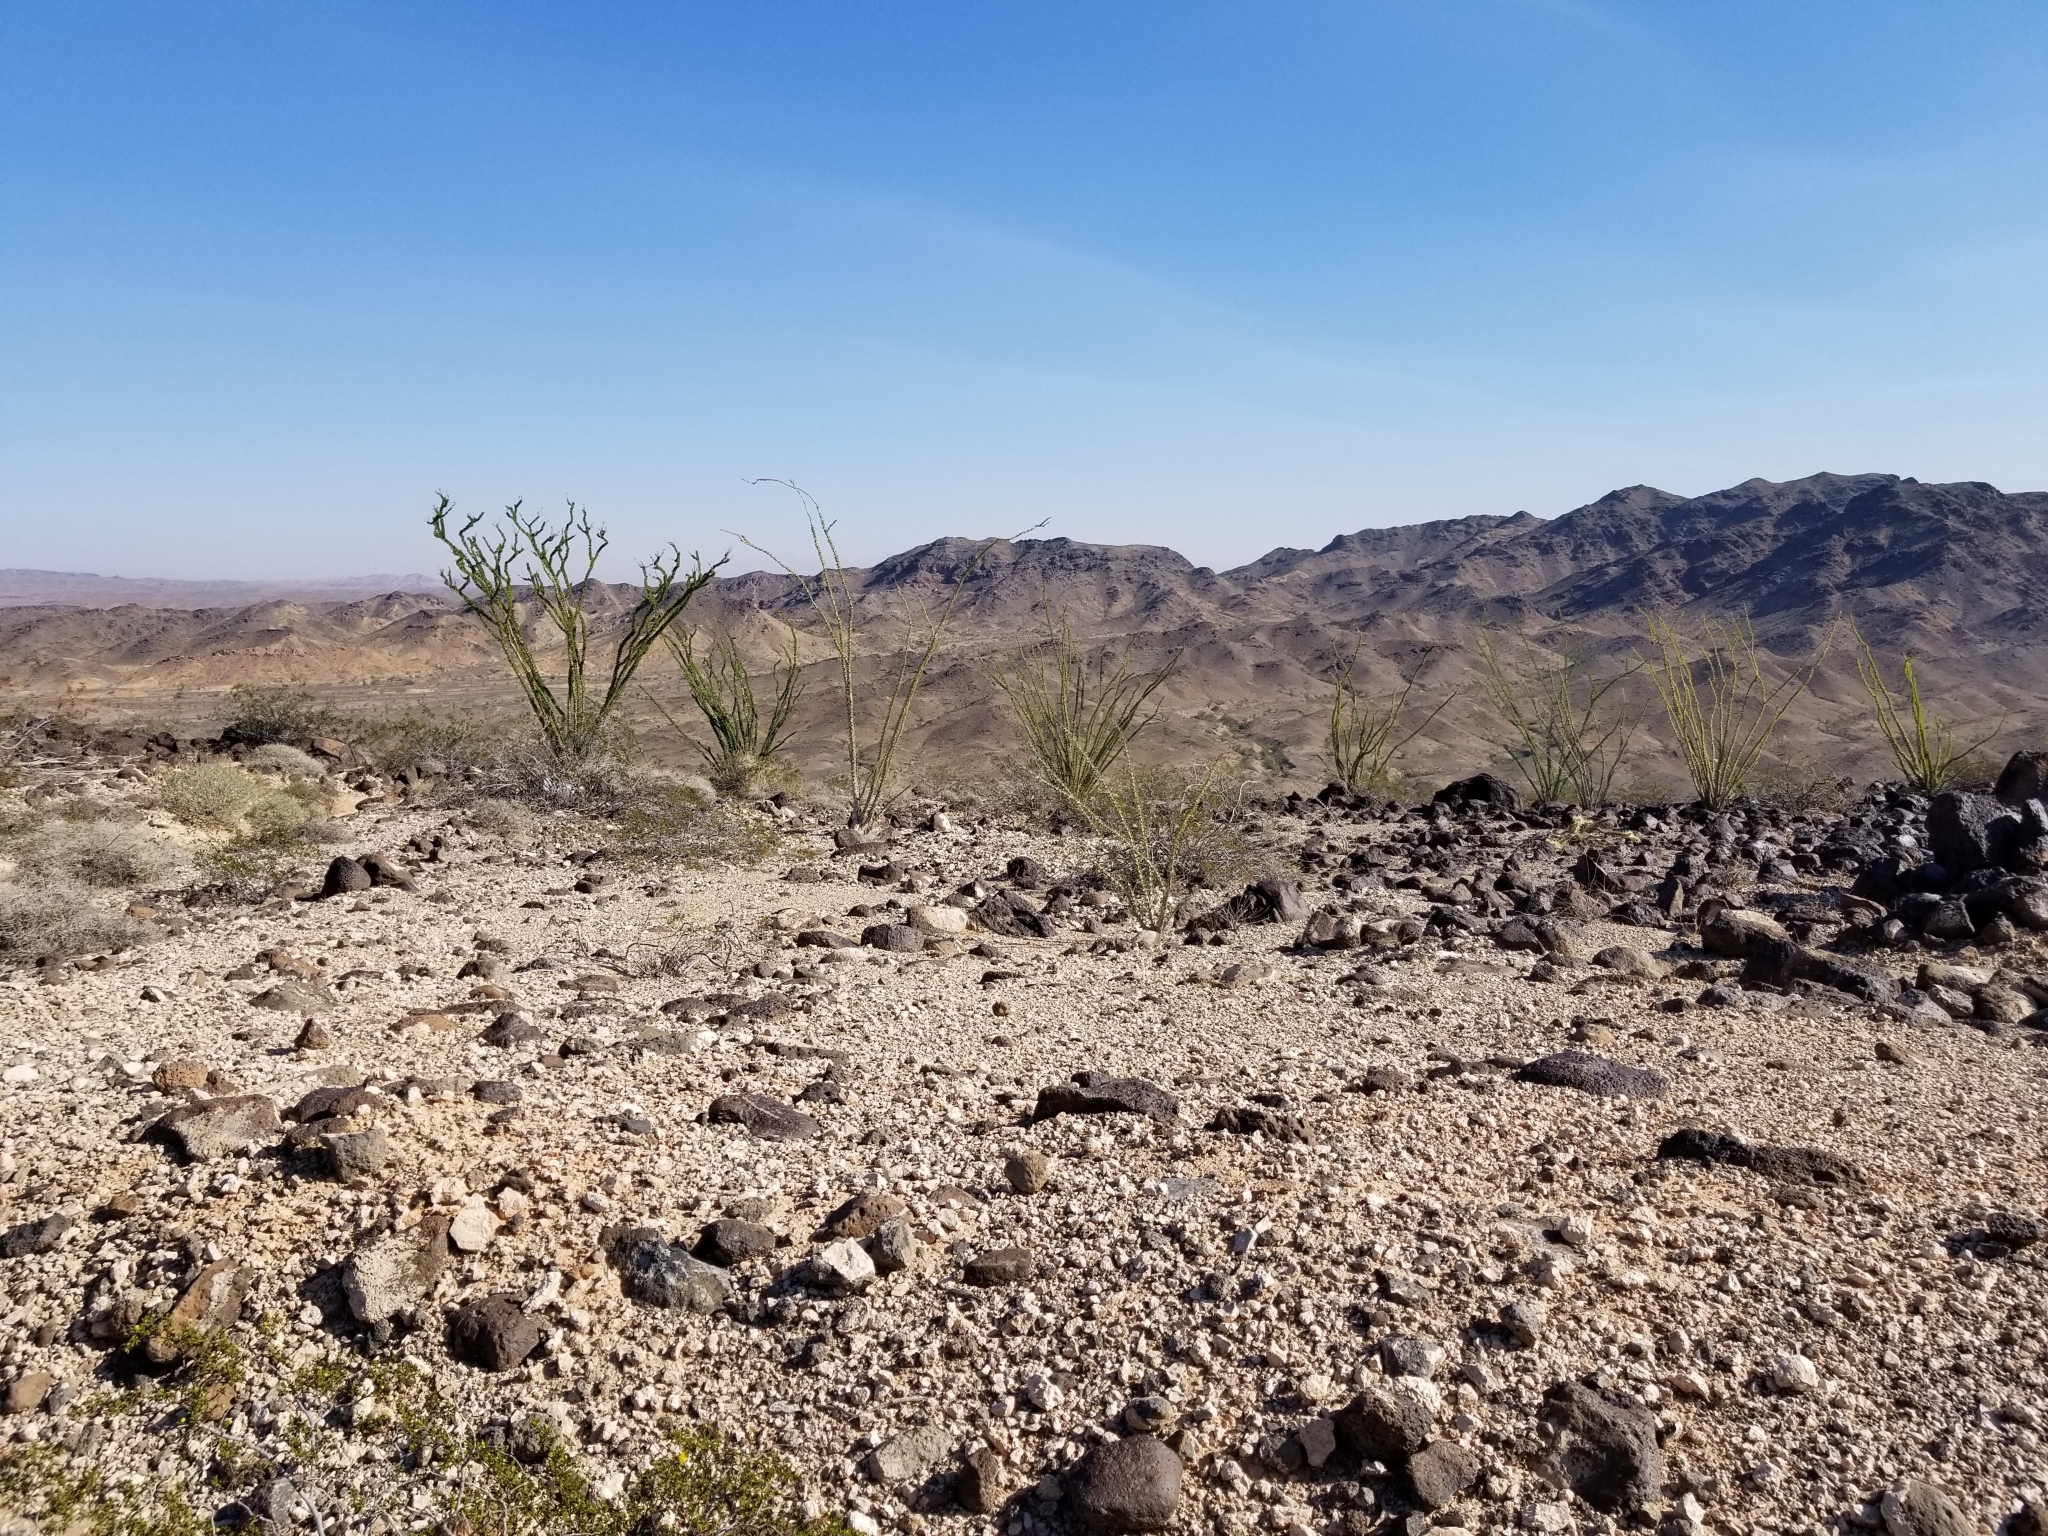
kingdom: Plantae
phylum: Tracheophyta
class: Magnoliopsida
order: Ericales
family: Fouquieriaceae
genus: Fouquieria
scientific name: Fouquieria splendens
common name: Vine-cactus
